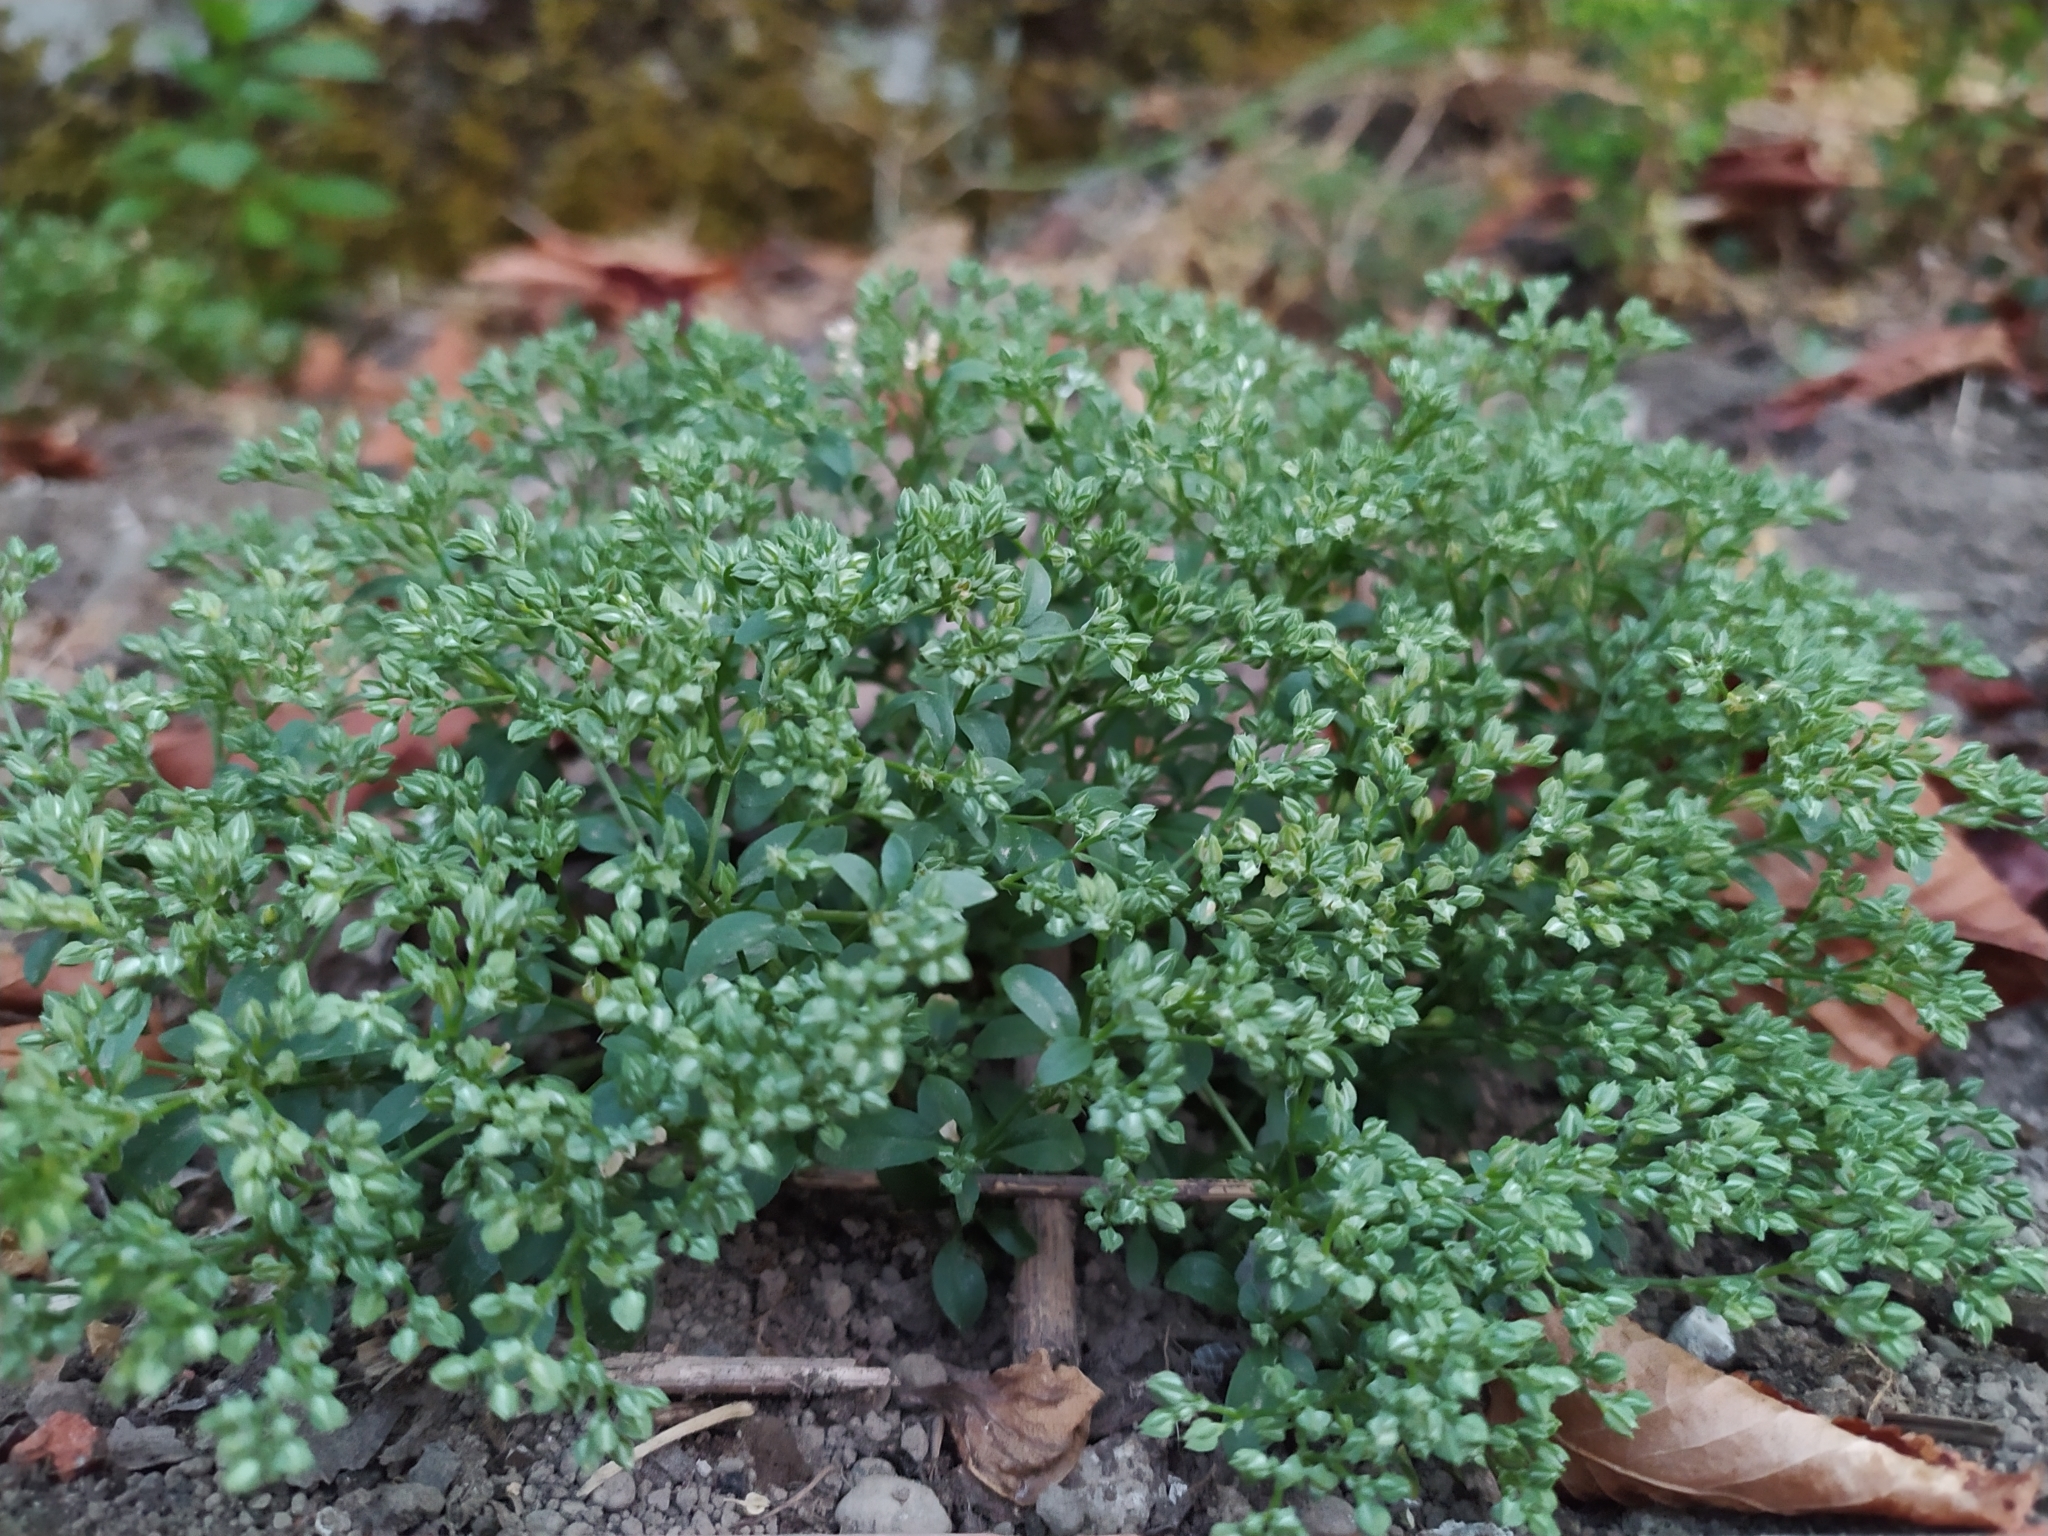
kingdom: Plantae
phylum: Tracheophyta
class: Magnoliopsida
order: Caryophyllales
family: Caryophyllaceae
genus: Polycarpon
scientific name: Polycarpon tetraphyllum
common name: Four-leaved all-seed
